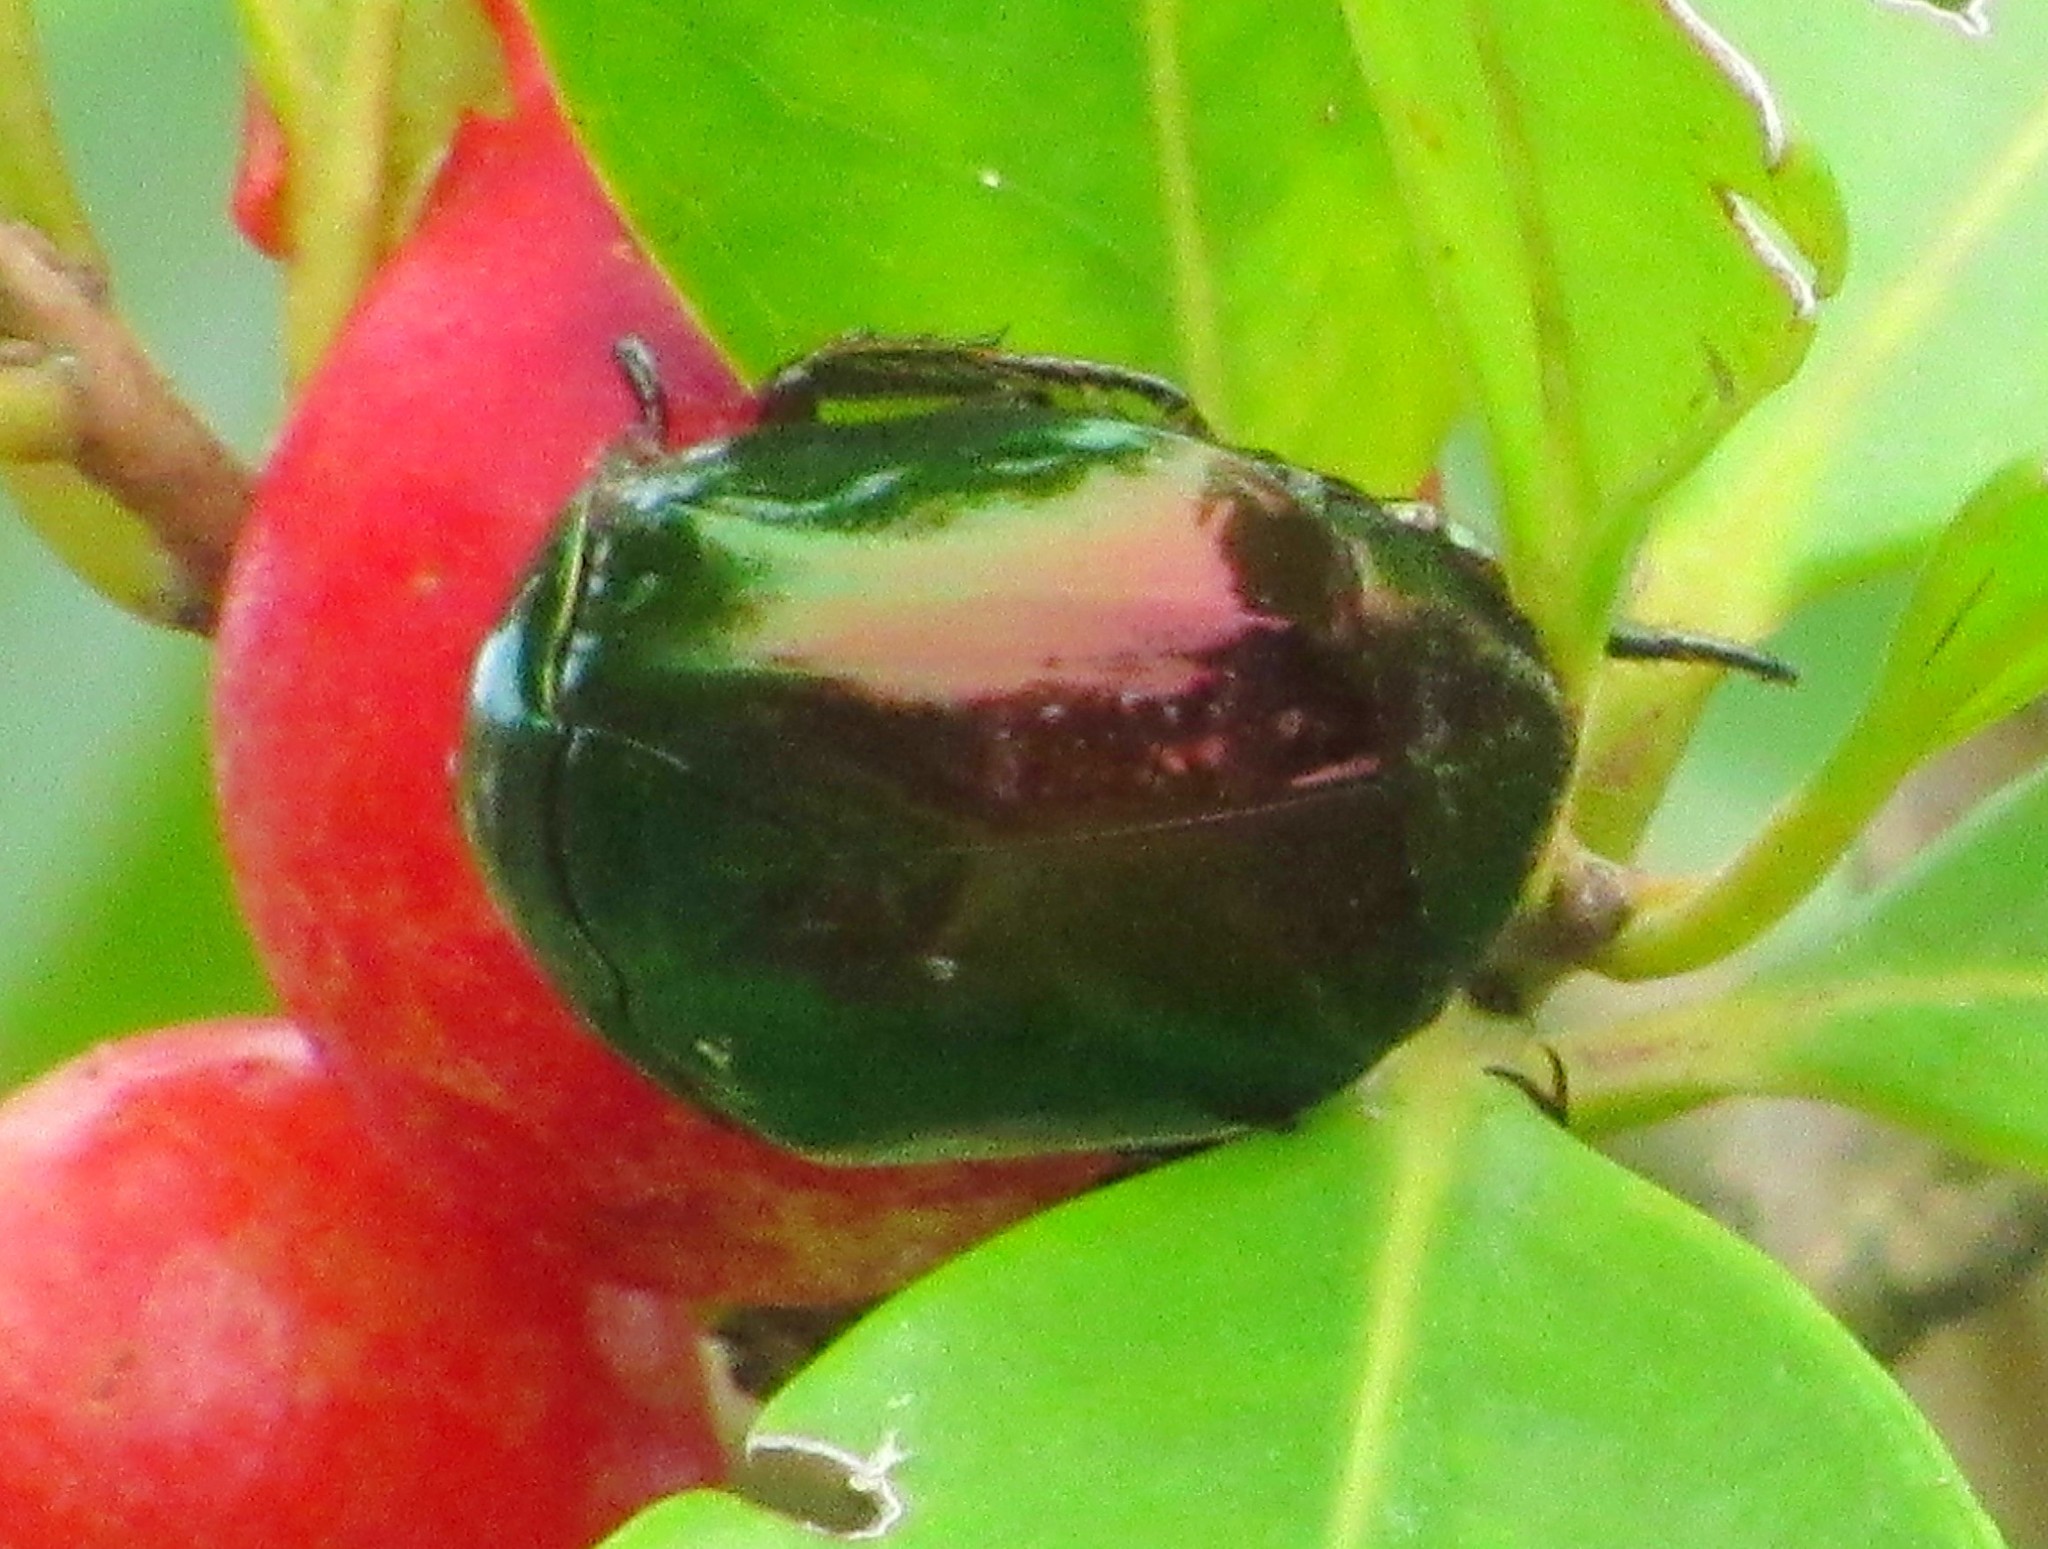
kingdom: Animalia
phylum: Arthropoda
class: Insecta
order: Coleoptera
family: Scarabaeidae
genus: Lagochile
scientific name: Lagochile emarginata
